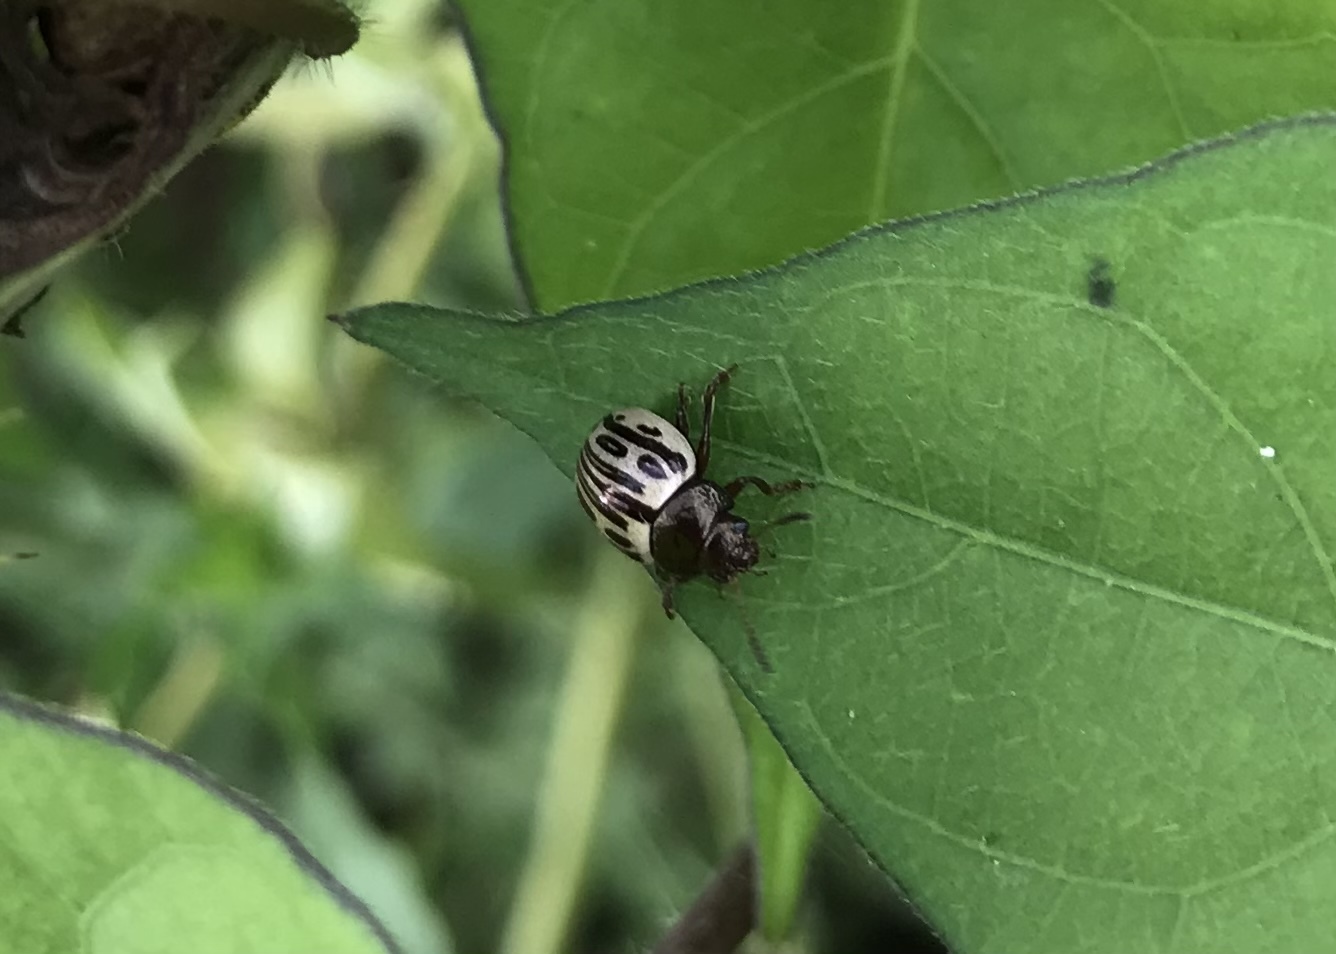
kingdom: Animalia
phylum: Arthropoda
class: Insecta
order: Coleoptera
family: Chrysomelidae
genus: Calligrapha
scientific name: Calligrapha
